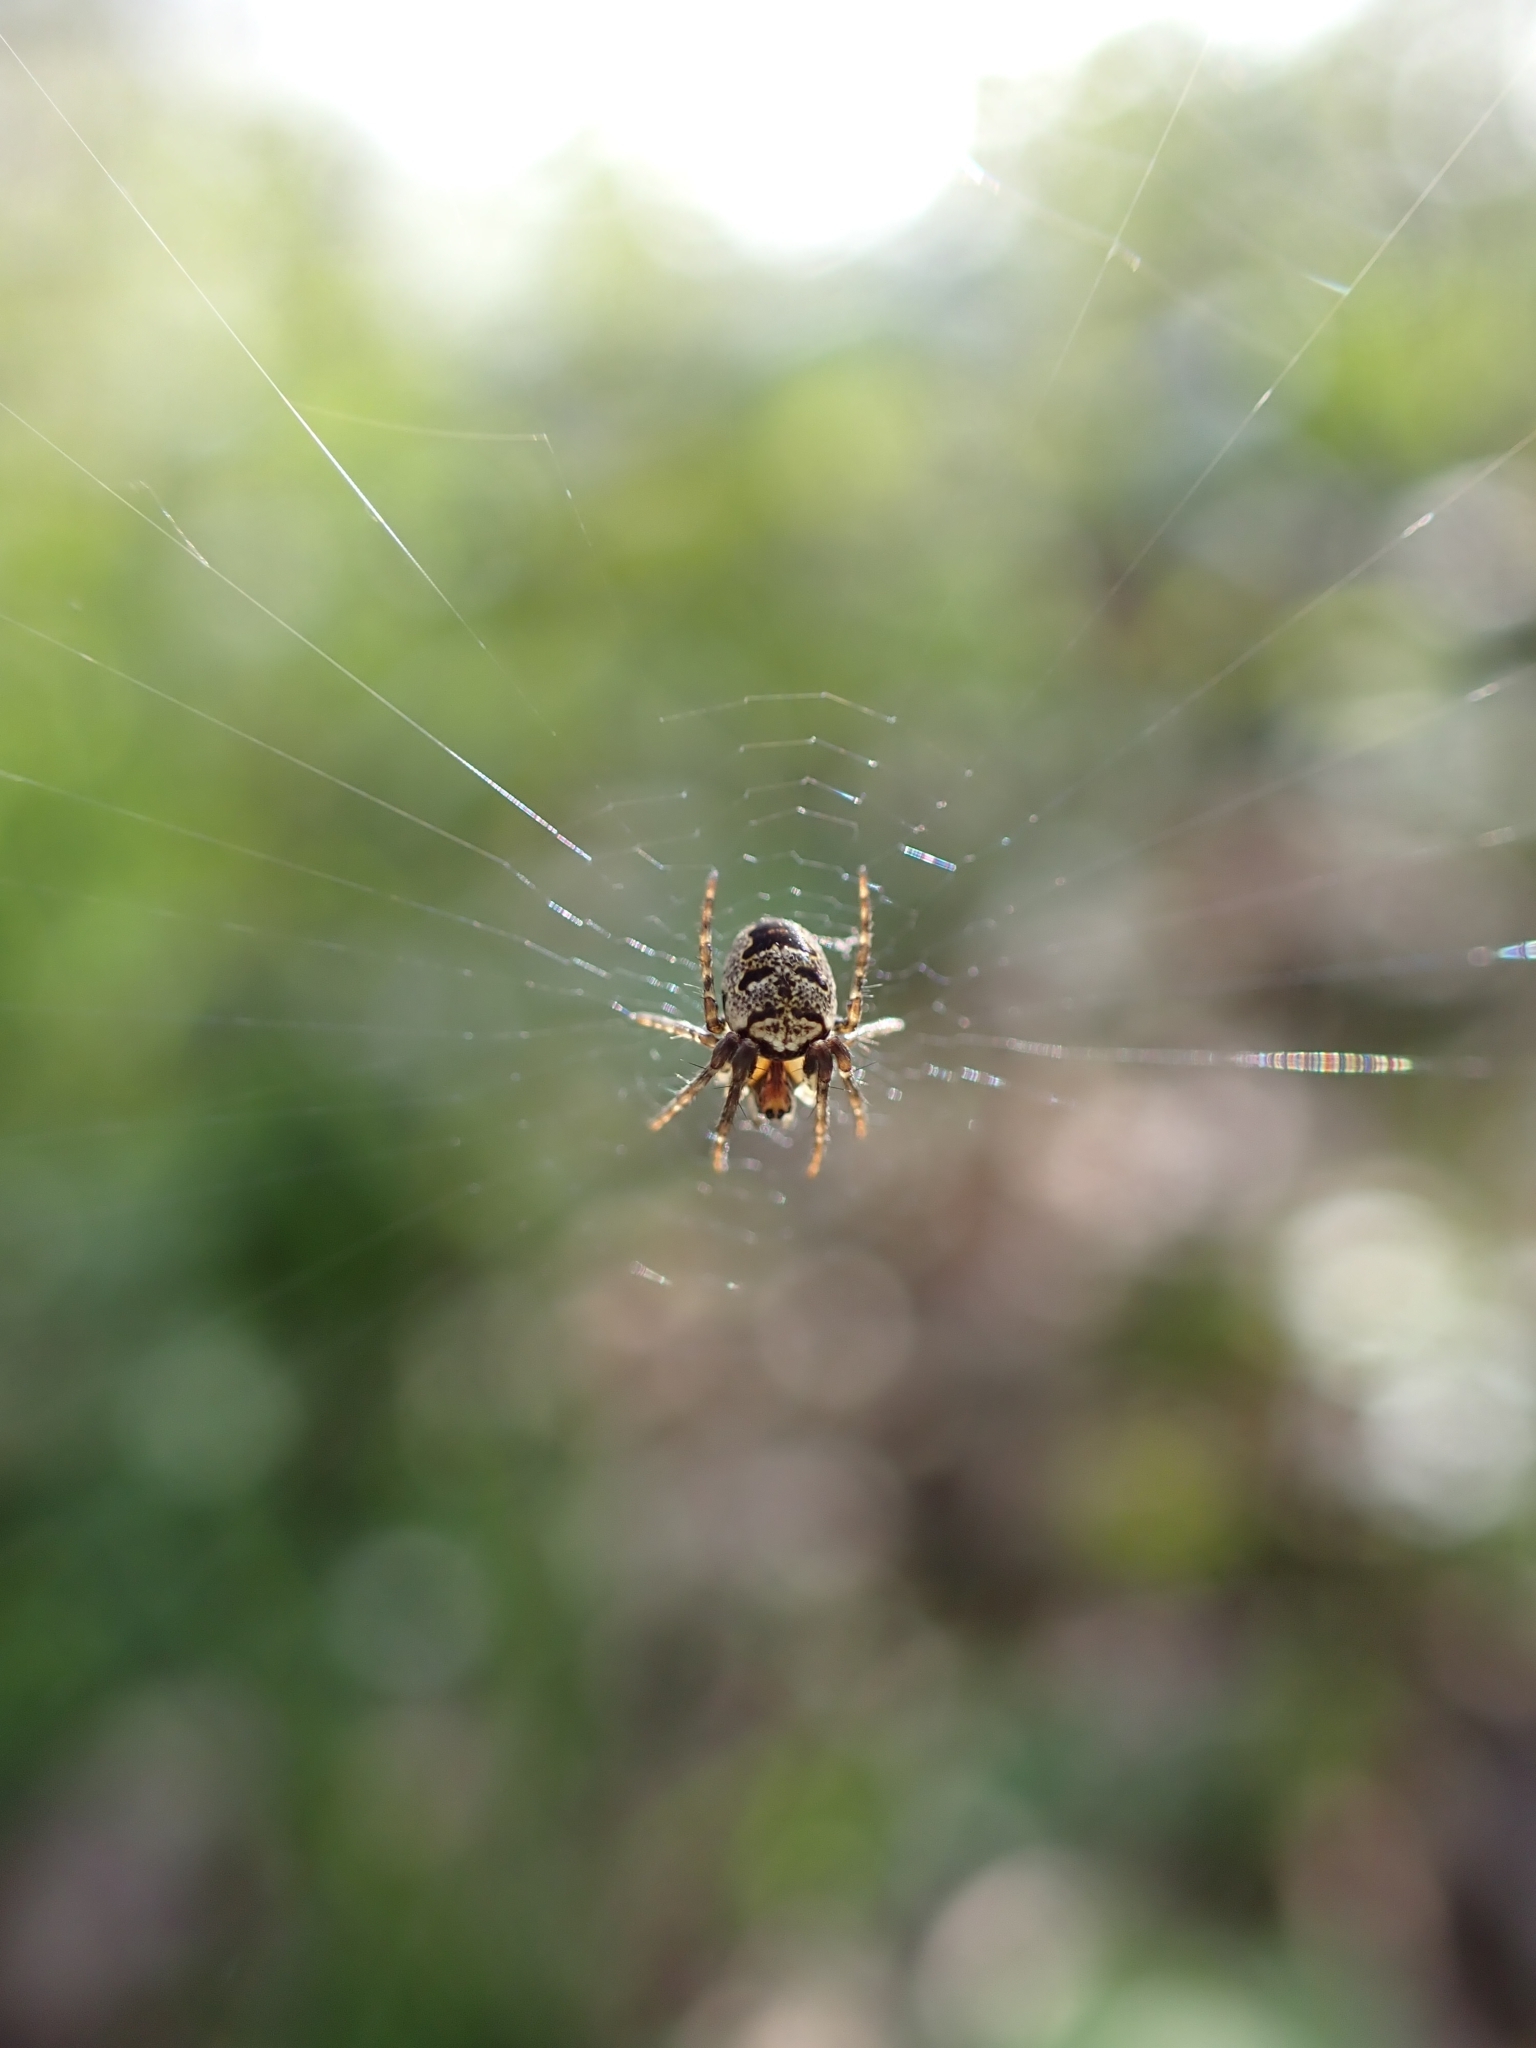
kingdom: Animalia
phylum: Arthropoda
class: Arachnida
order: Araneae
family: Araneidae
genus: Zilla
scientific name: Zilla diodia
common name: Zilla diodia
